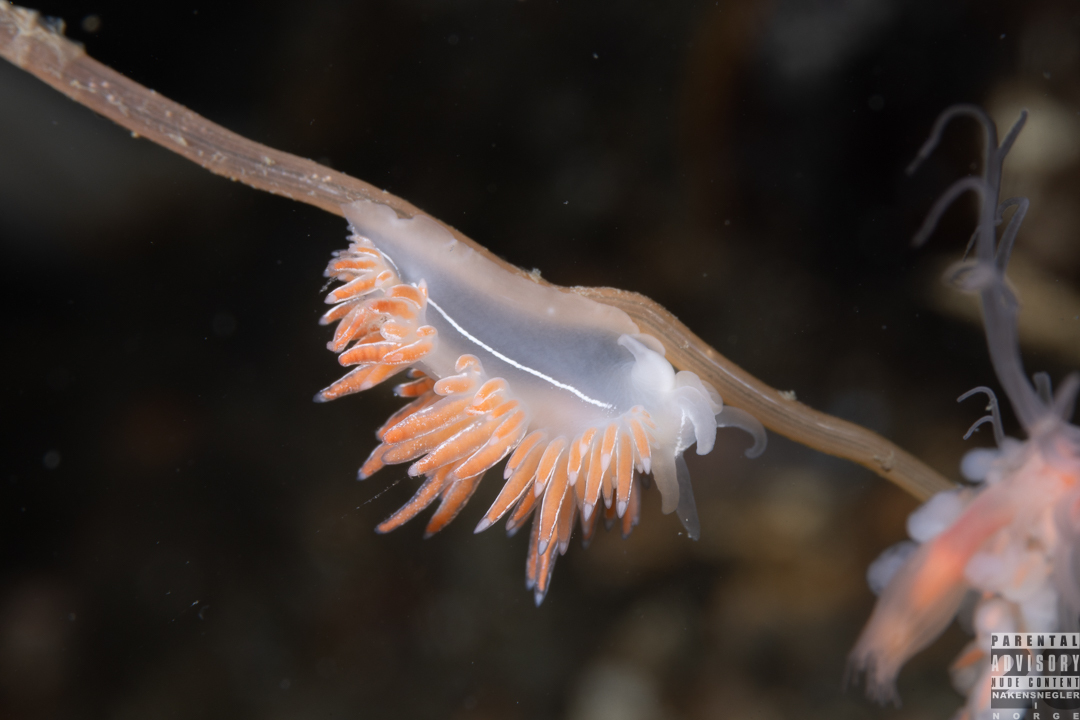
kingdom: Animalia
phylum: Mollusca
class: Gastropoda
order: Nudibranchia
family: Coryphellidae
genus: Coryphella
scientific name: Coryphella chriskaugei
